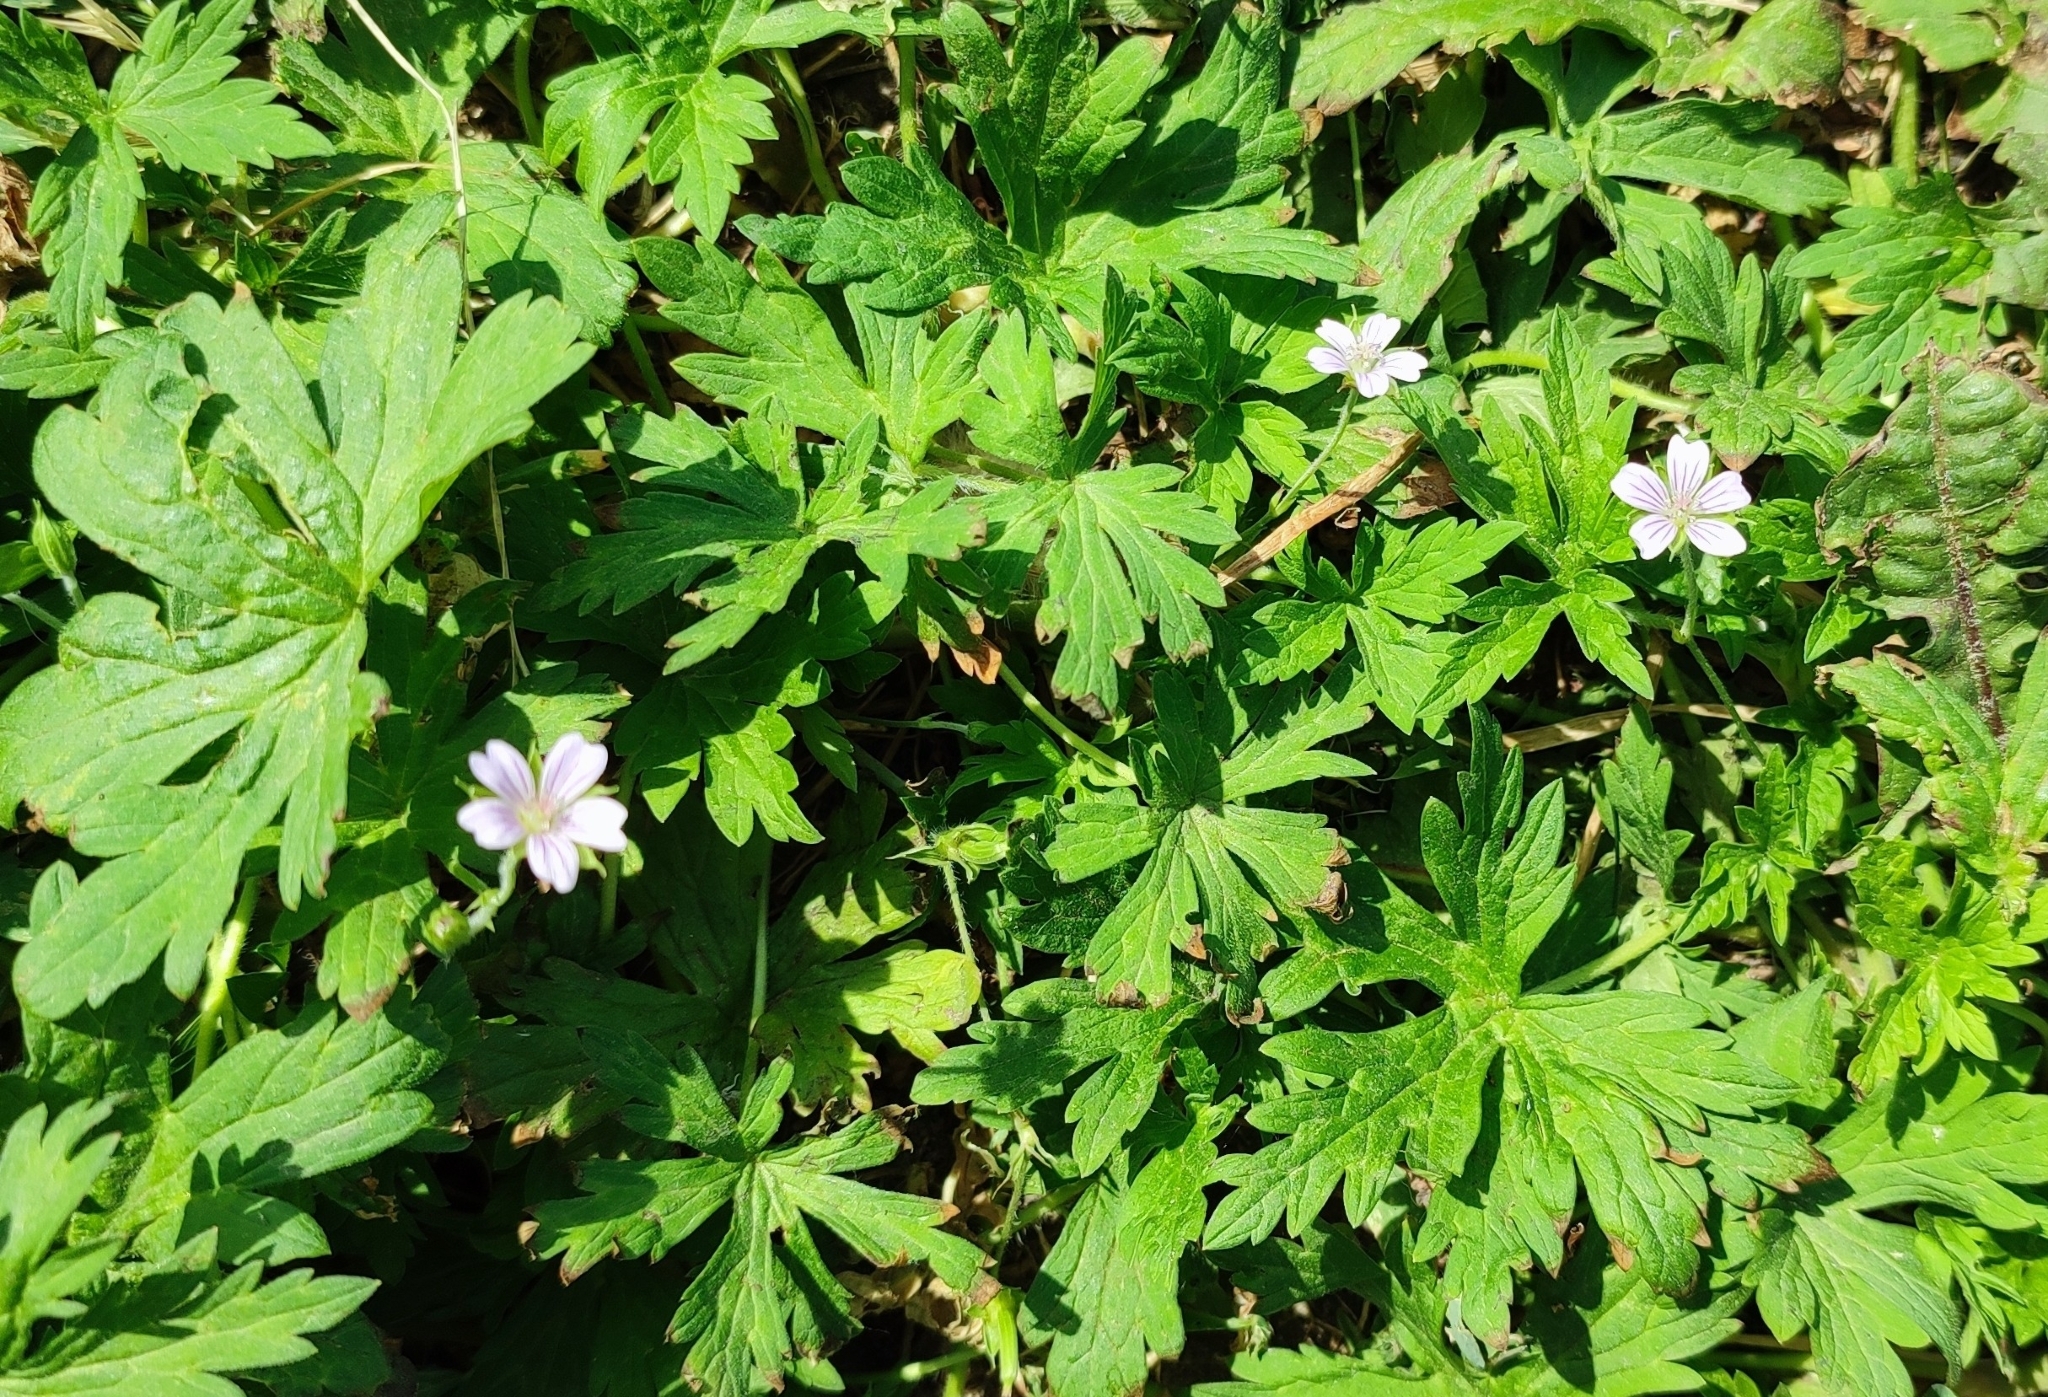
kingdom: Plantae
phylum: Tracheophyta
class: Magnoliopsida
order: Geraniales
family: Geraniaceae
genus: Geranium
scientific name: Geranium sibiricum
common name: Siberian crane's-bill
